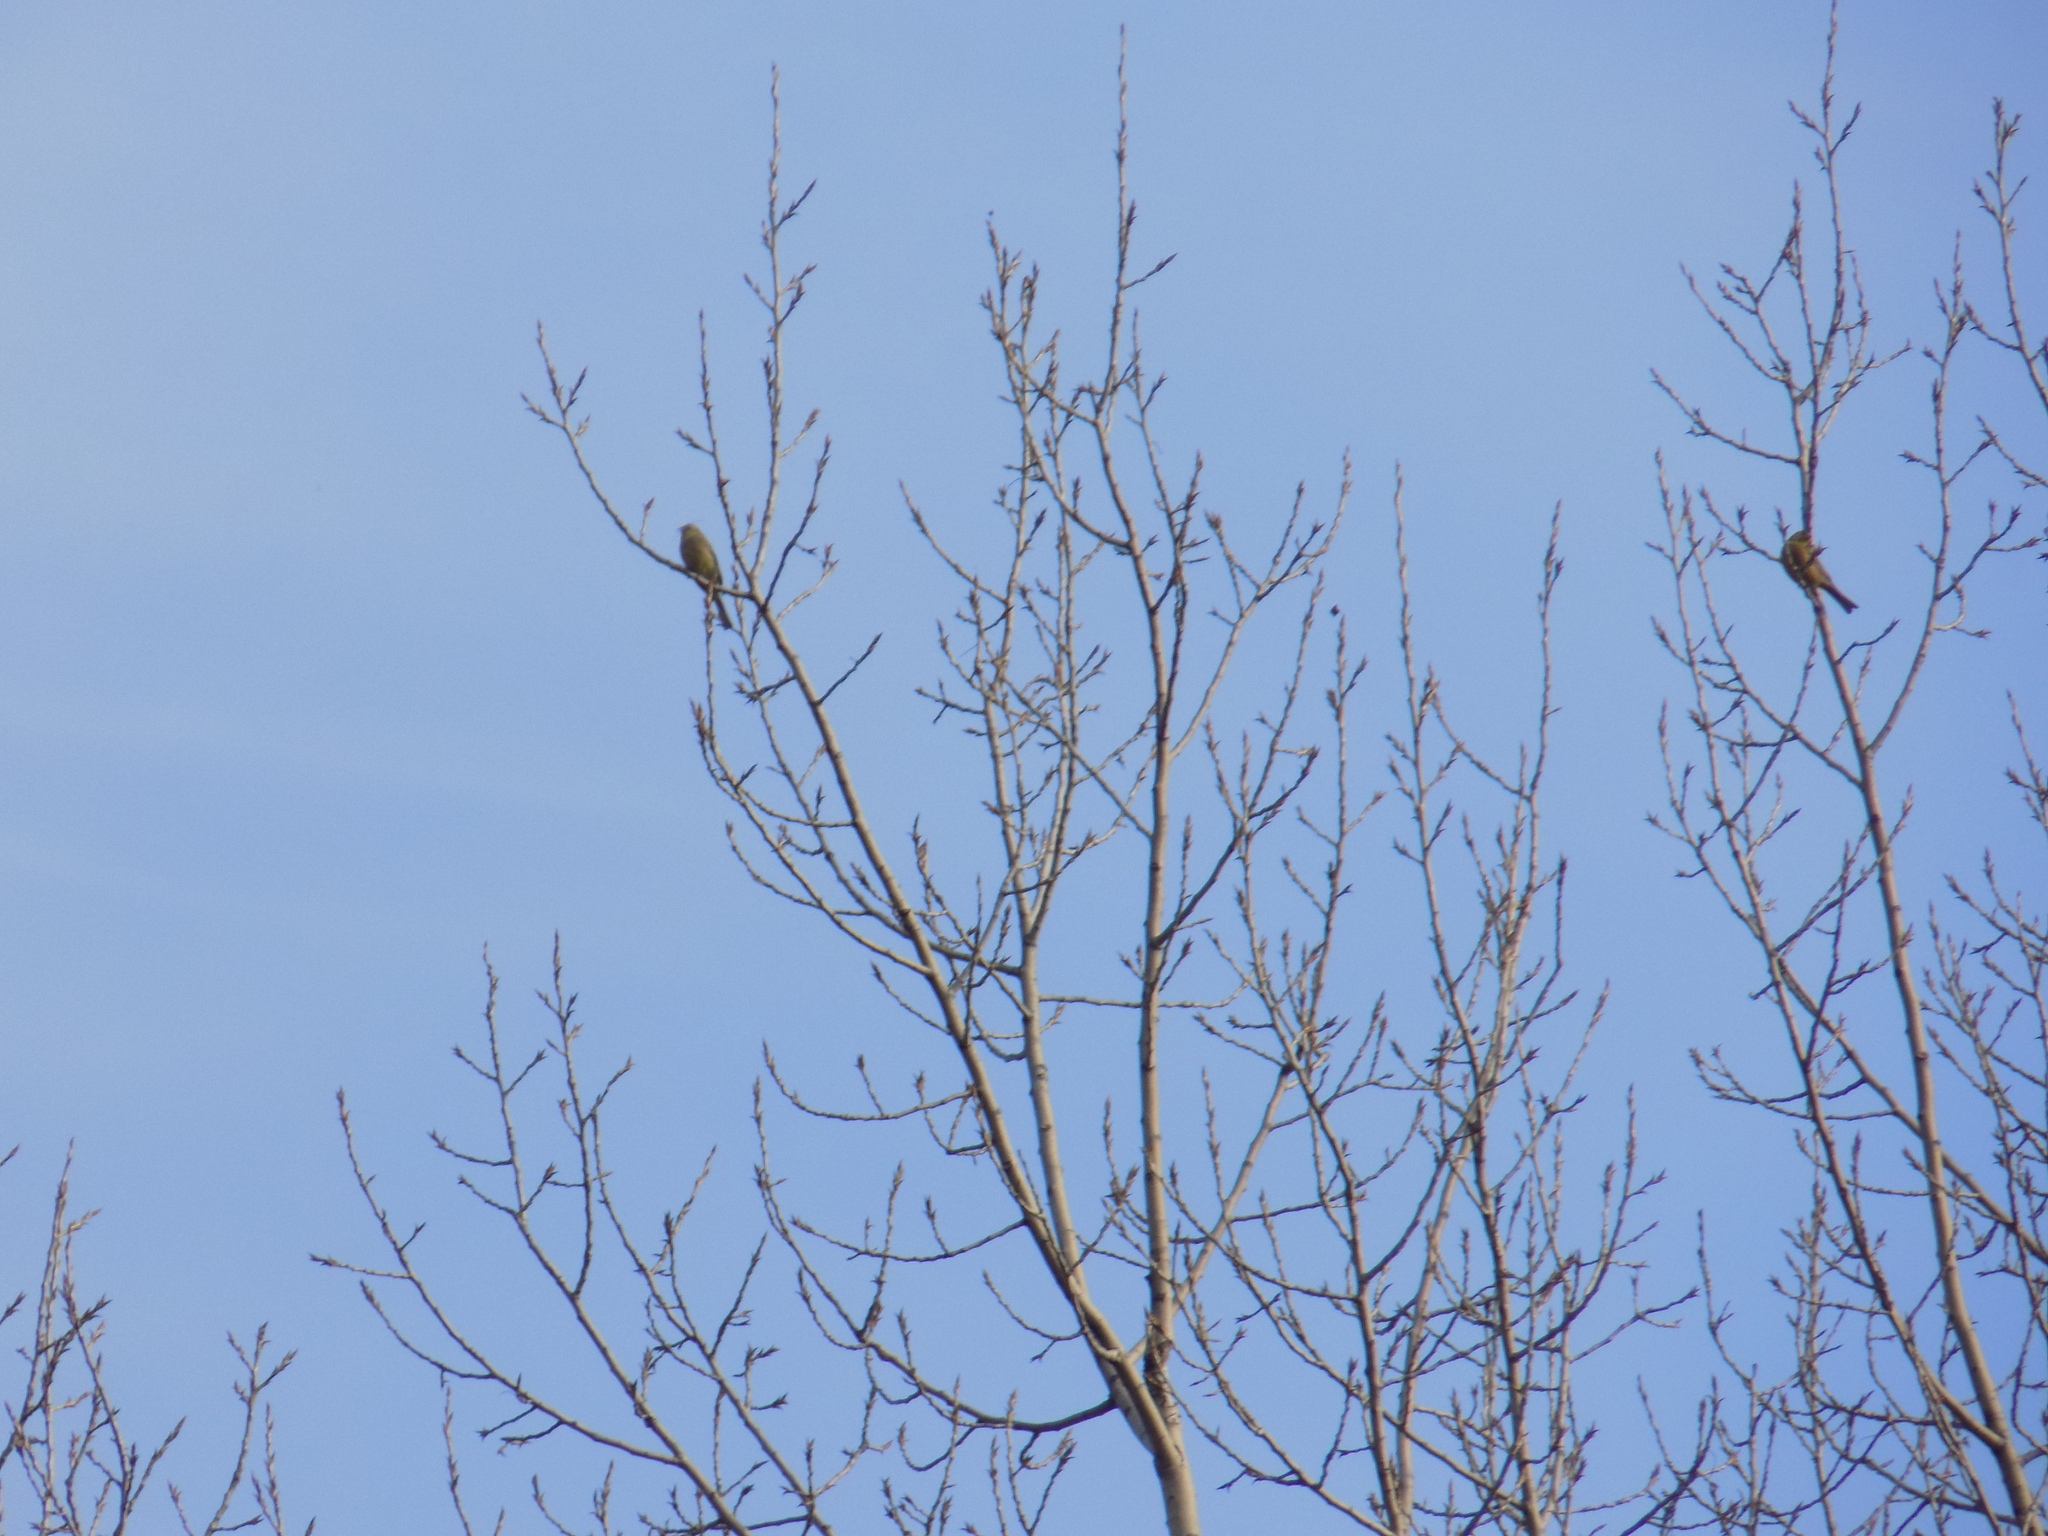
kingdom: Animalia
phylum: Chordata
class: Aves
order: Passeriformes
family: Emberizidae
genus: Emberiza
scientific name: Emberiza
